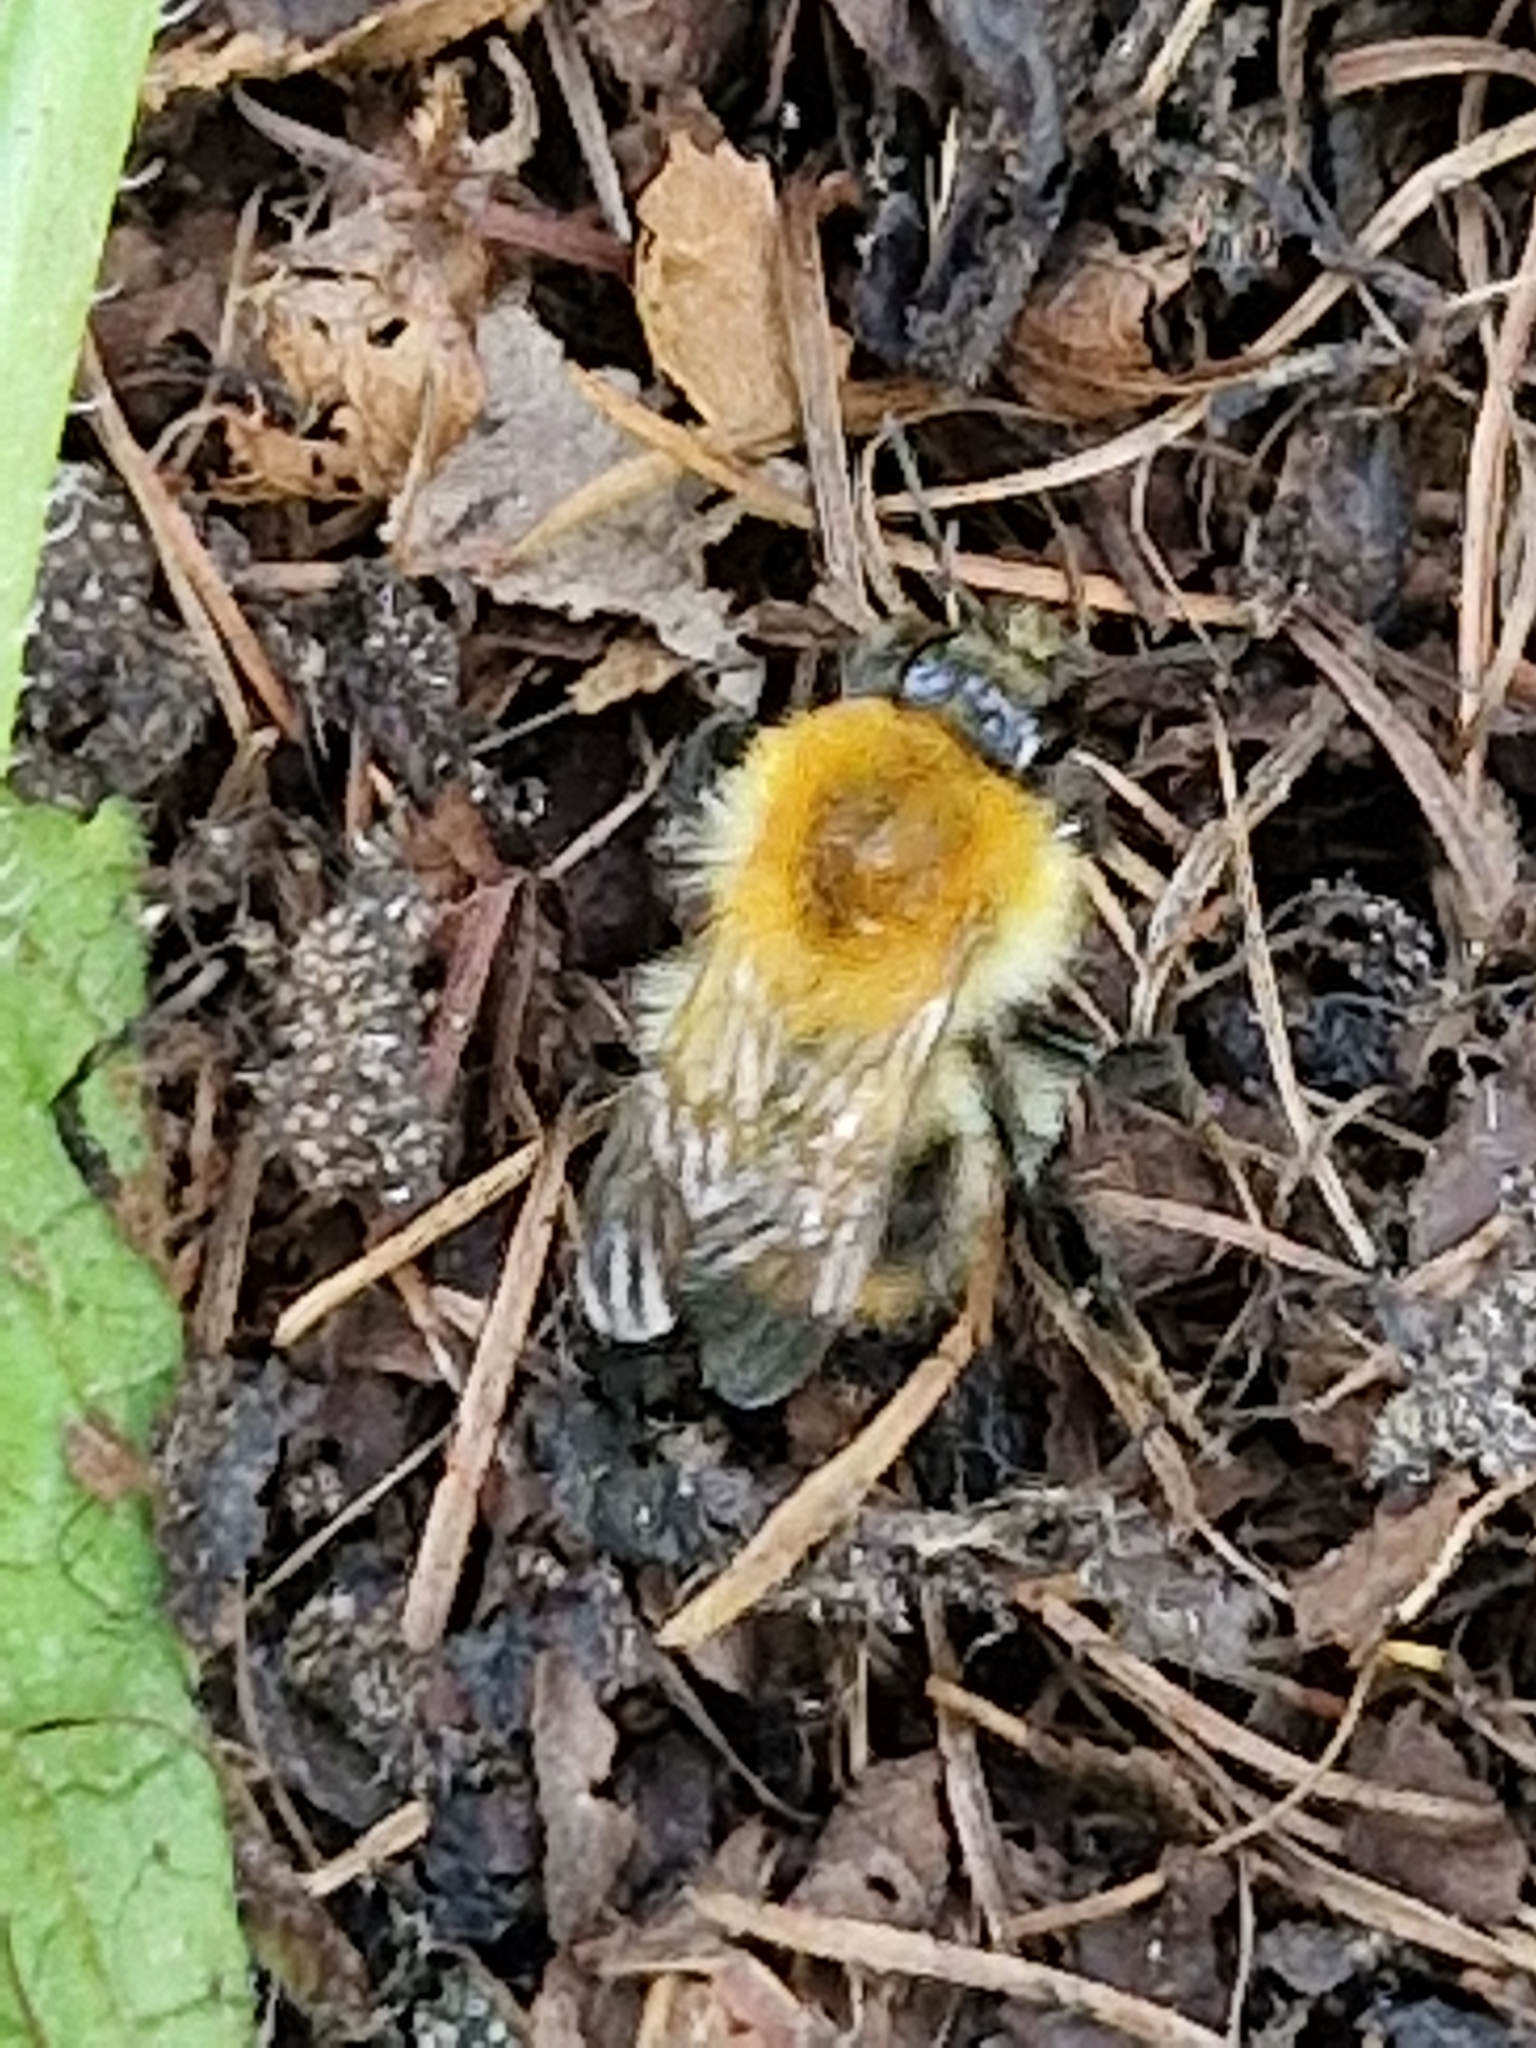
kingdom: Animalia
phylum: Arthropoda
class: Insecta
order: Hymenoptera
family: Apidae
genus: Bombus
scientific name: Bombus pascuorum
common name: Common carder bee
